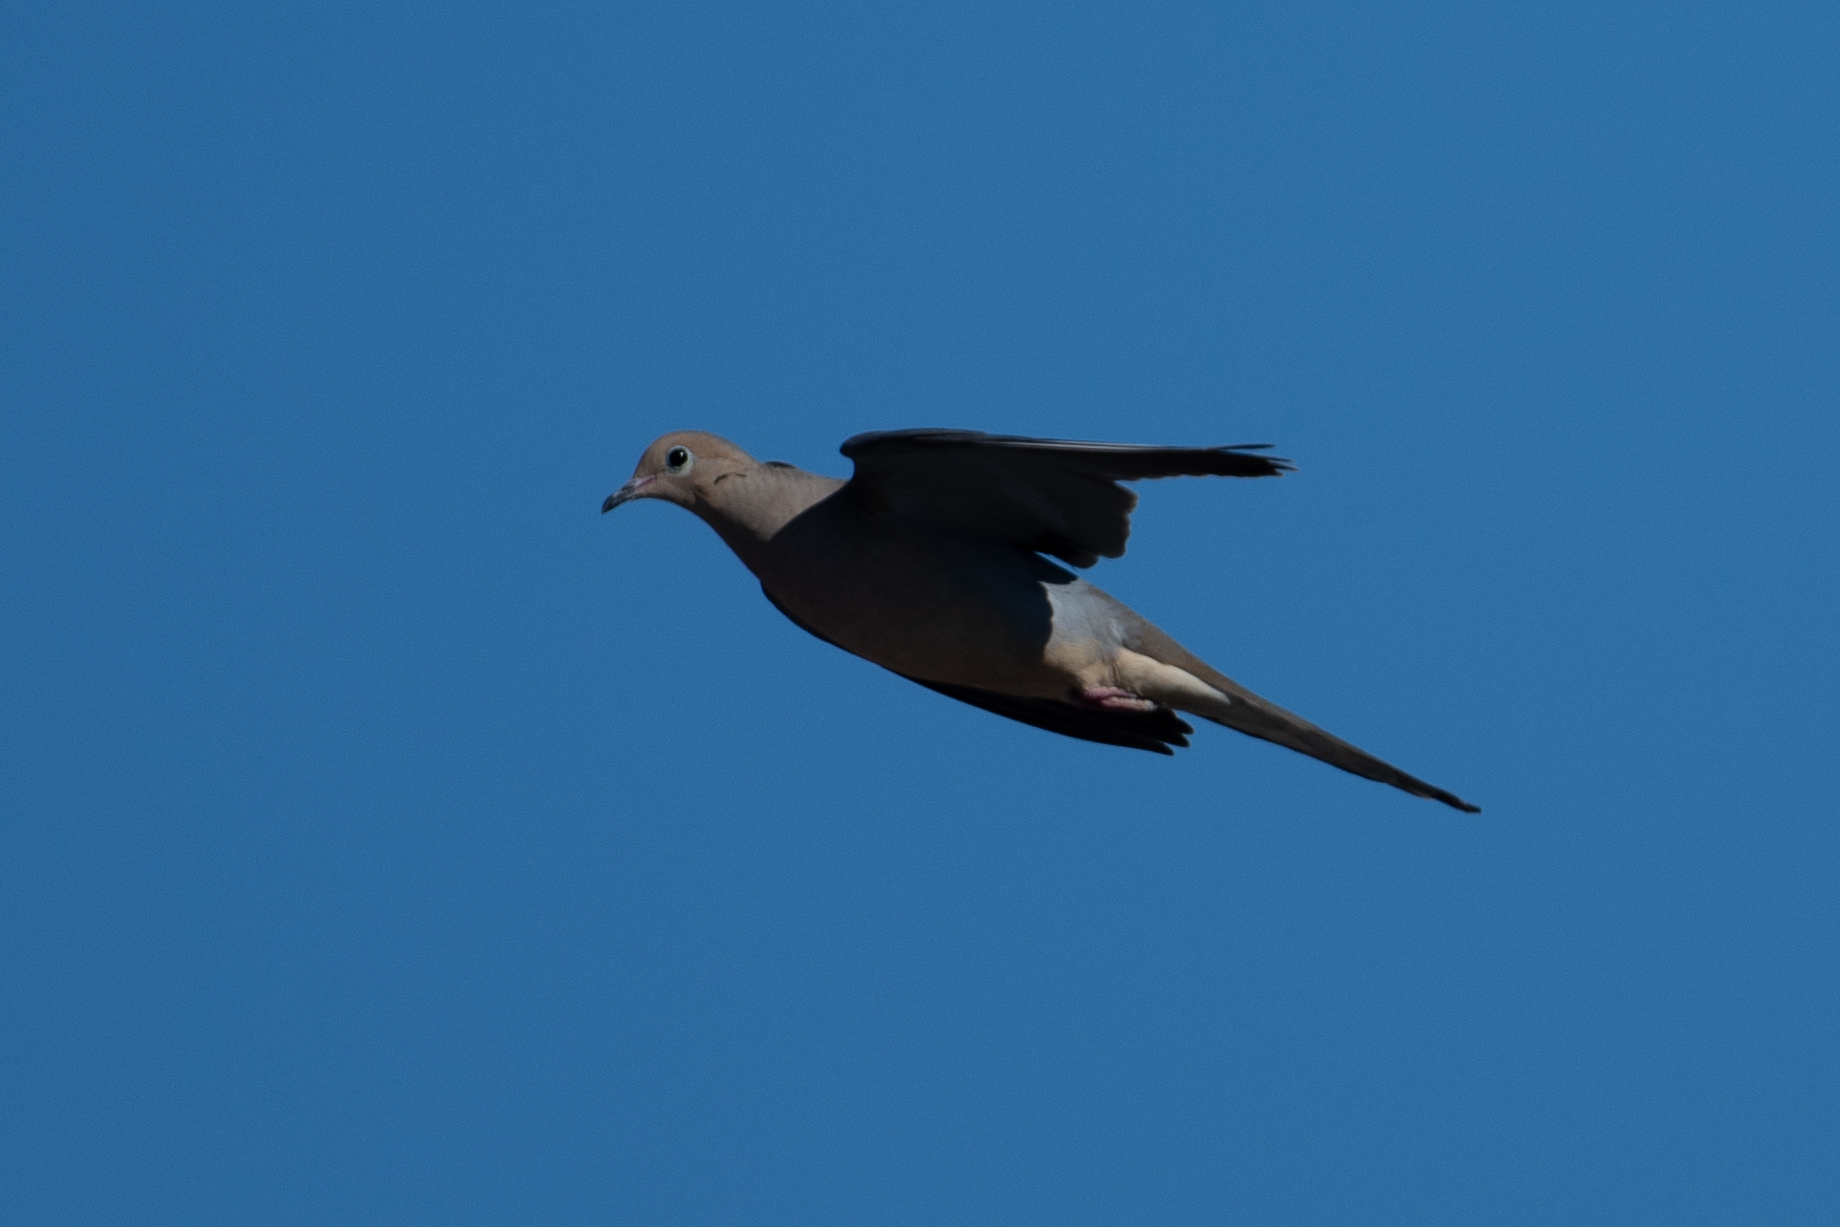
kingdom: Animalia
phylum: Chordata
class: Aves
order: Columbiformes
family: Columbidae
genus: Zenaida
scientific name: Zenaida macroura
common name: Mourning dove
